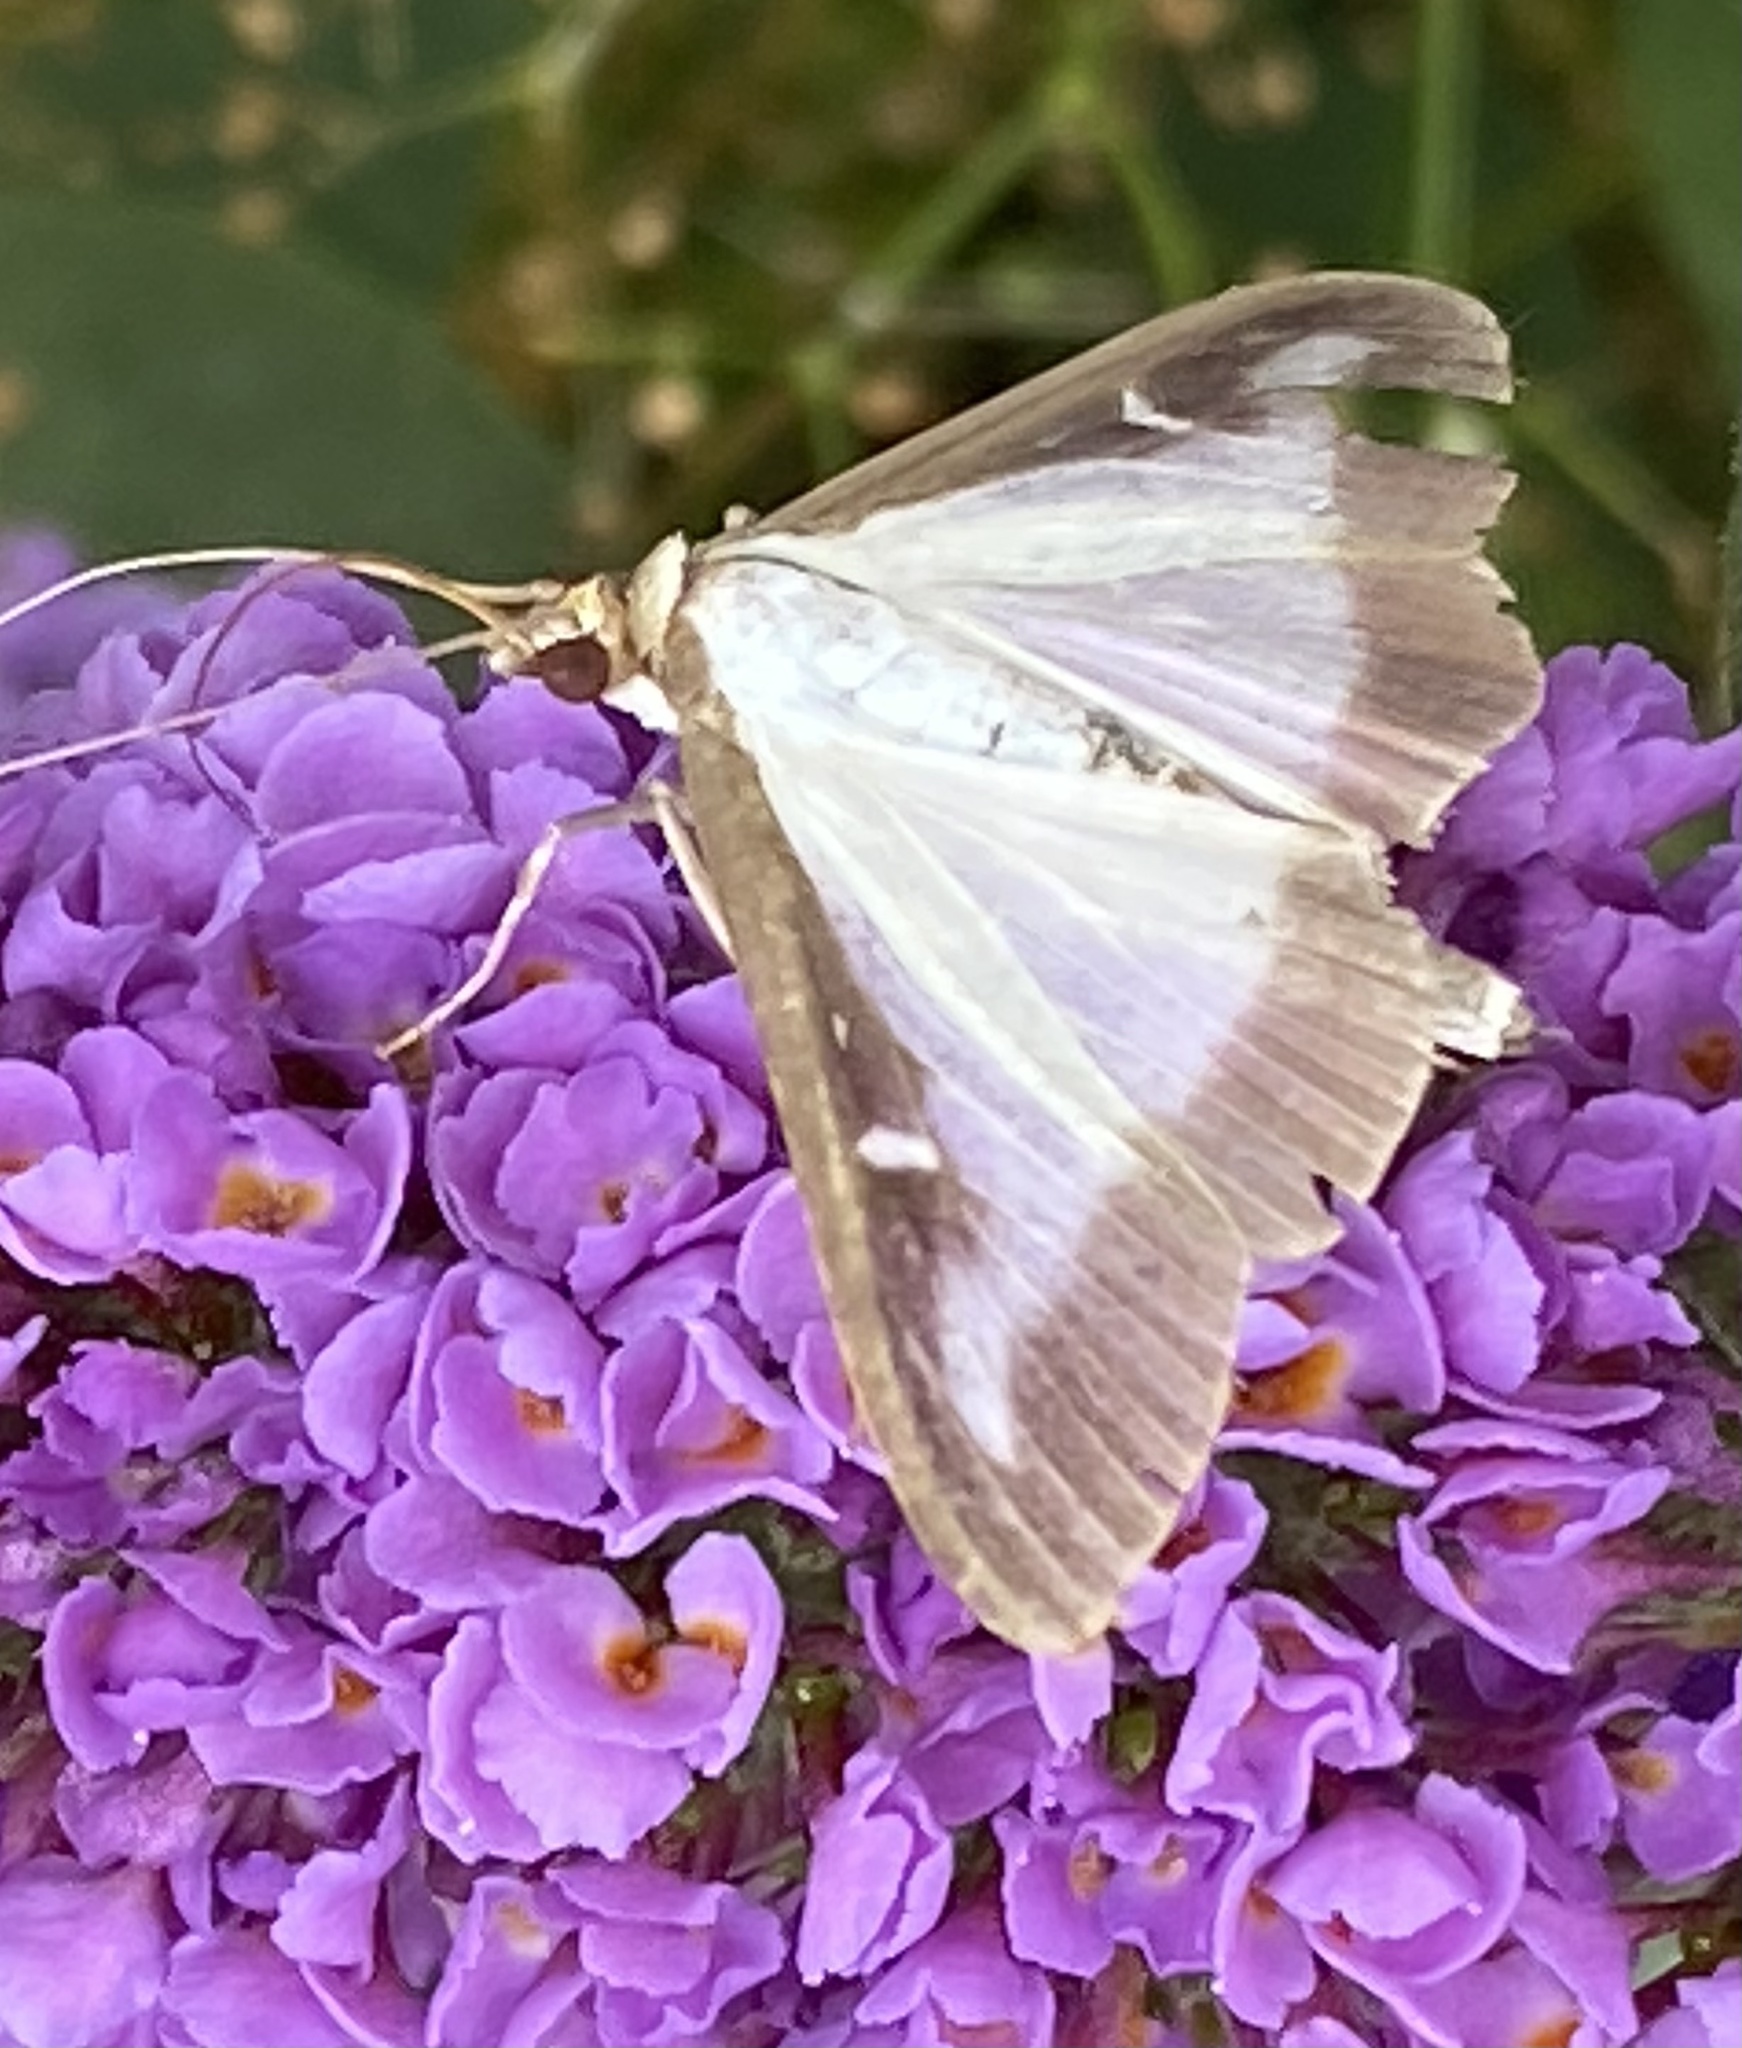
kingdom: Animalia
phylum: Arthropoda
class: Insecta
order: Lepidoptera
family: Crambidae
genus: Cydalima
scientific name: Cydalima perspectalis
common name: Box tree moth
